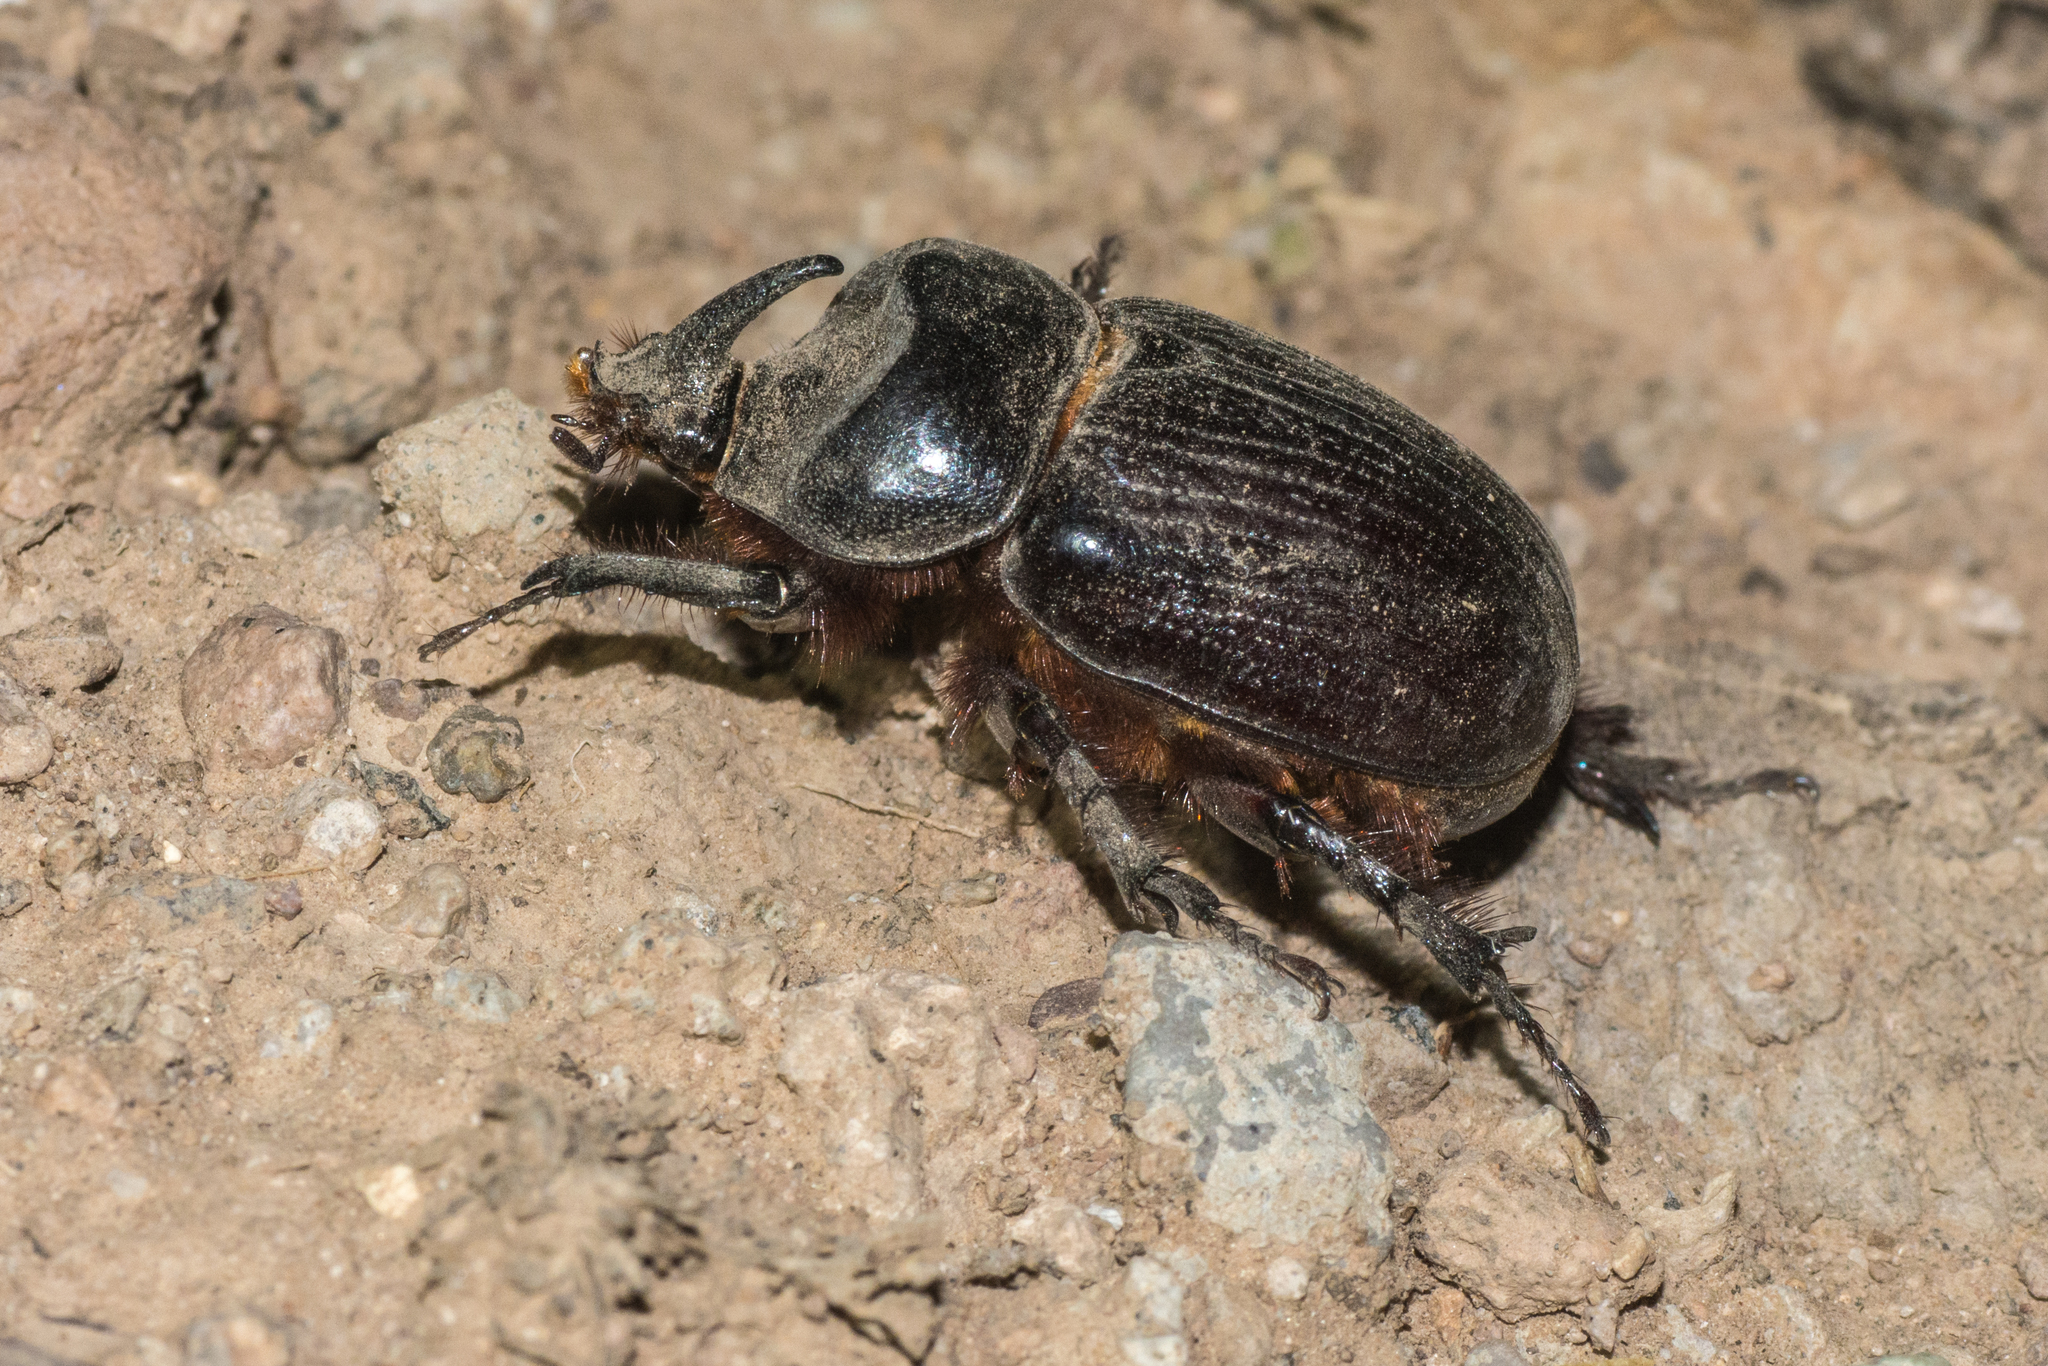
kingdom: Animalia
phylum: Arthropoda
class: Insecta
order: Coleoptera
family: Scarabaeidae
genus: Xyloryctes
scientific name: Xyloryctes thestalus
